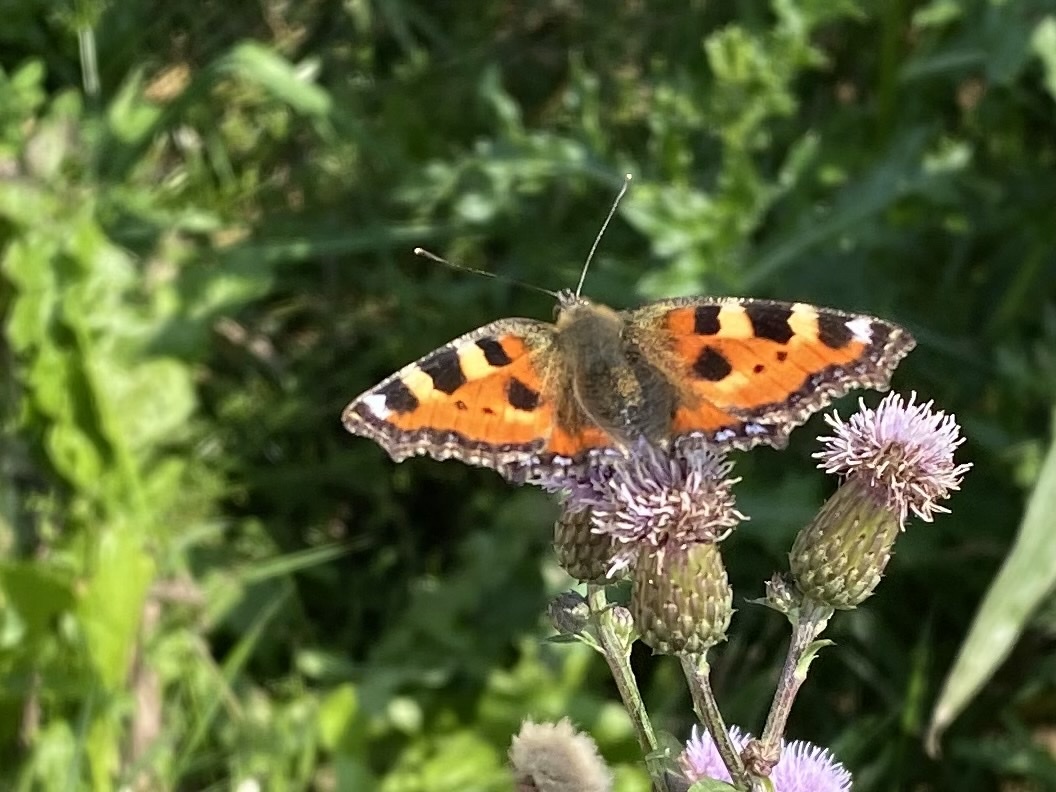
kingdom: Animalia
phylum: Arthropoda
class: Insecta
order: Lepidoptera
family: Nymphalidae
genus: Aglais
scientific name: Aglais urticae
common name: Small tortoiseshell
